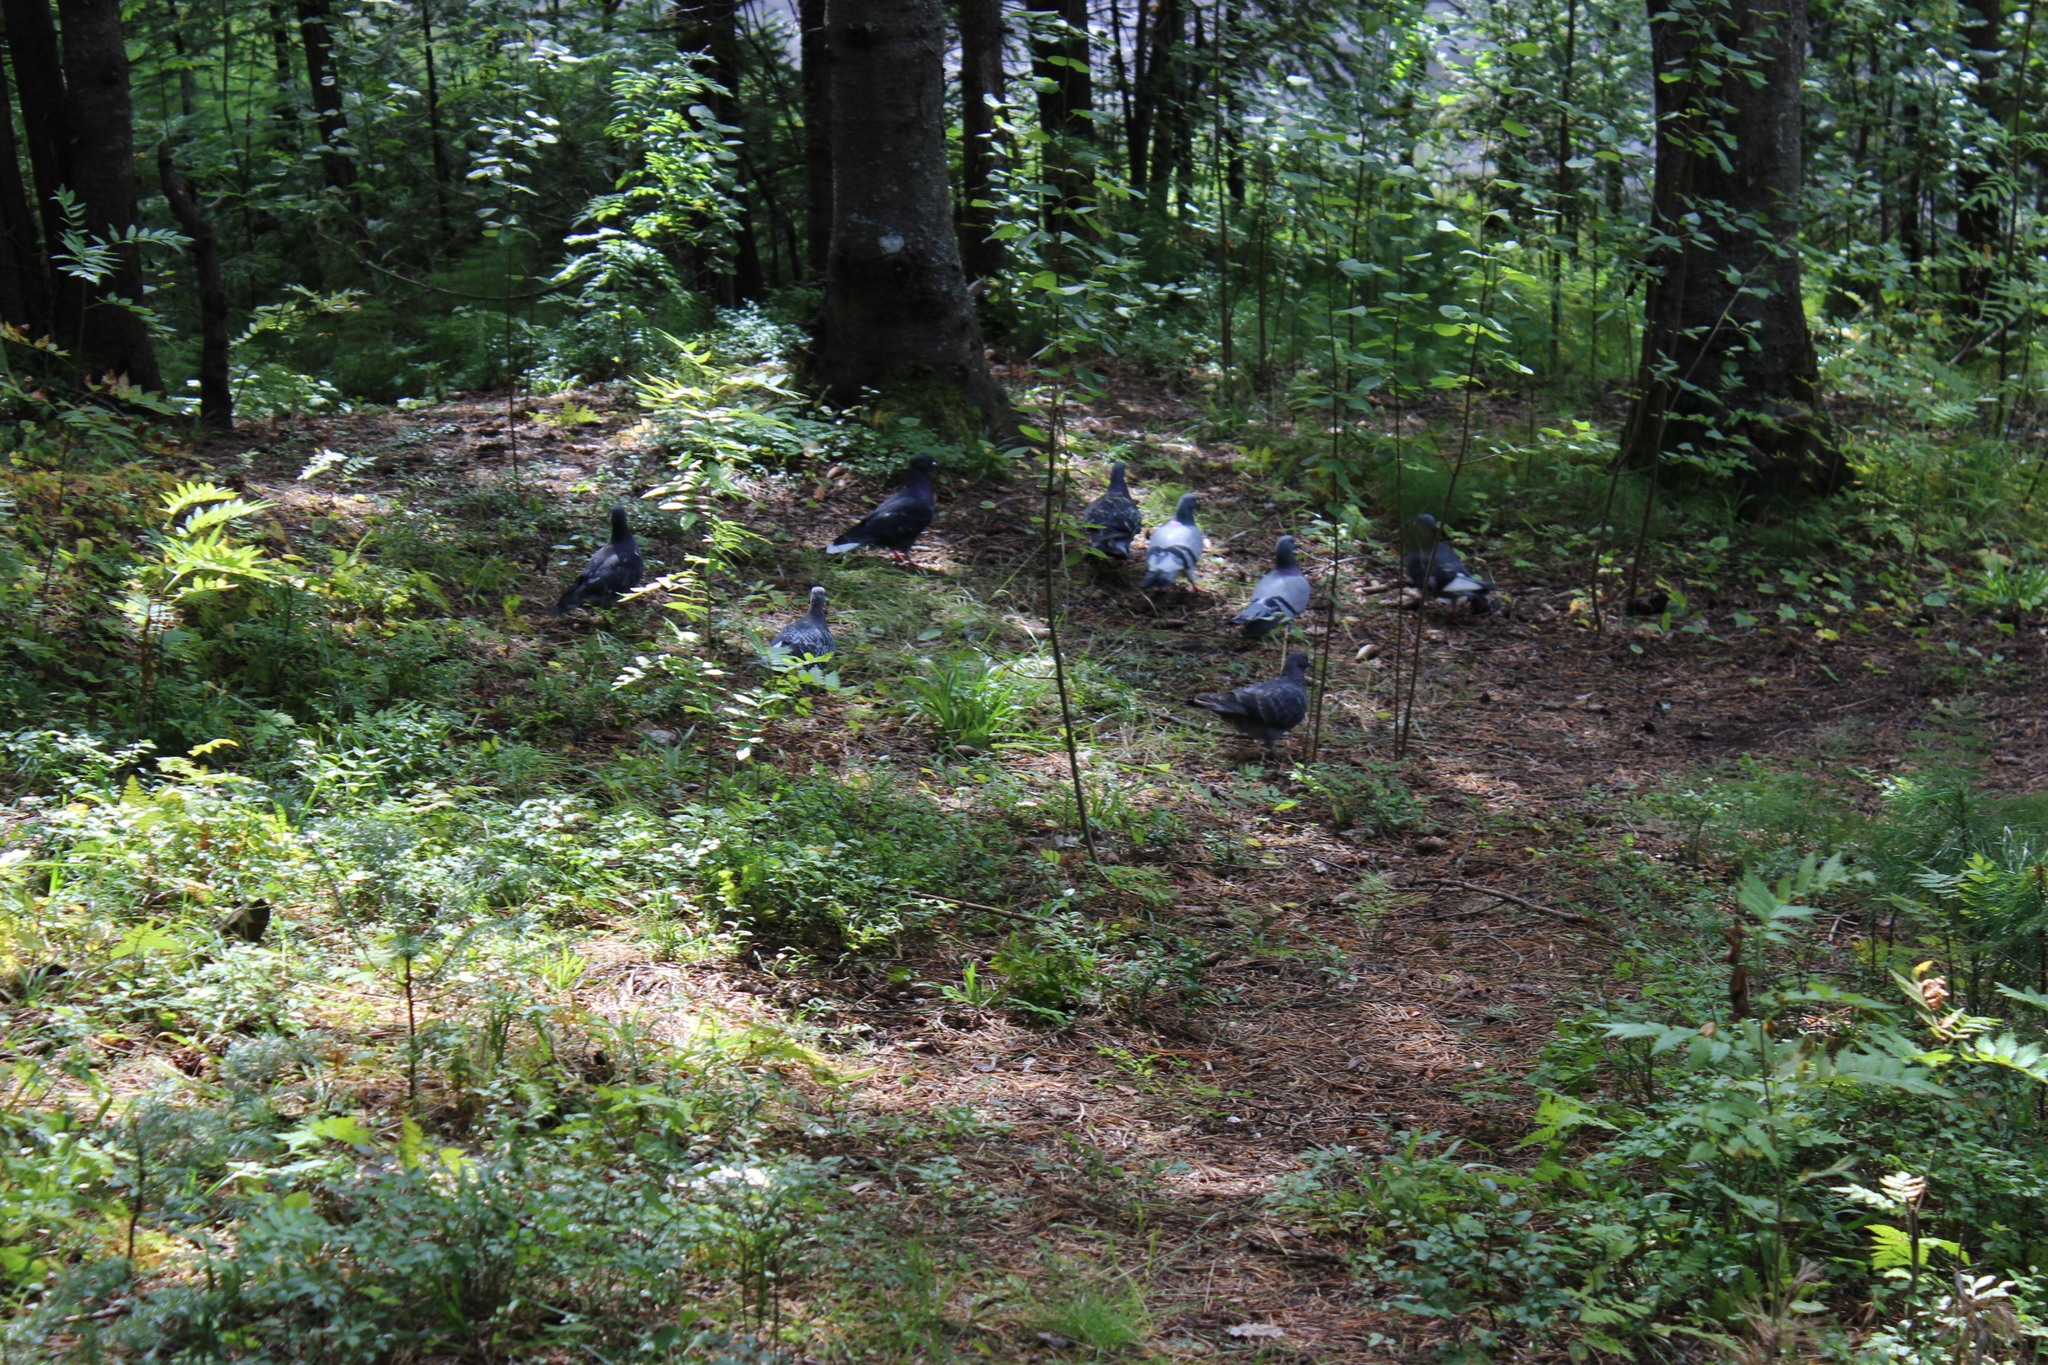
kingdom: Animalia
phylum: Chordata
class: Aves
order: Columbiformes
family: Columbidae
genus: Columba
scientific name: Columba livia
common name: Rock pigeon
